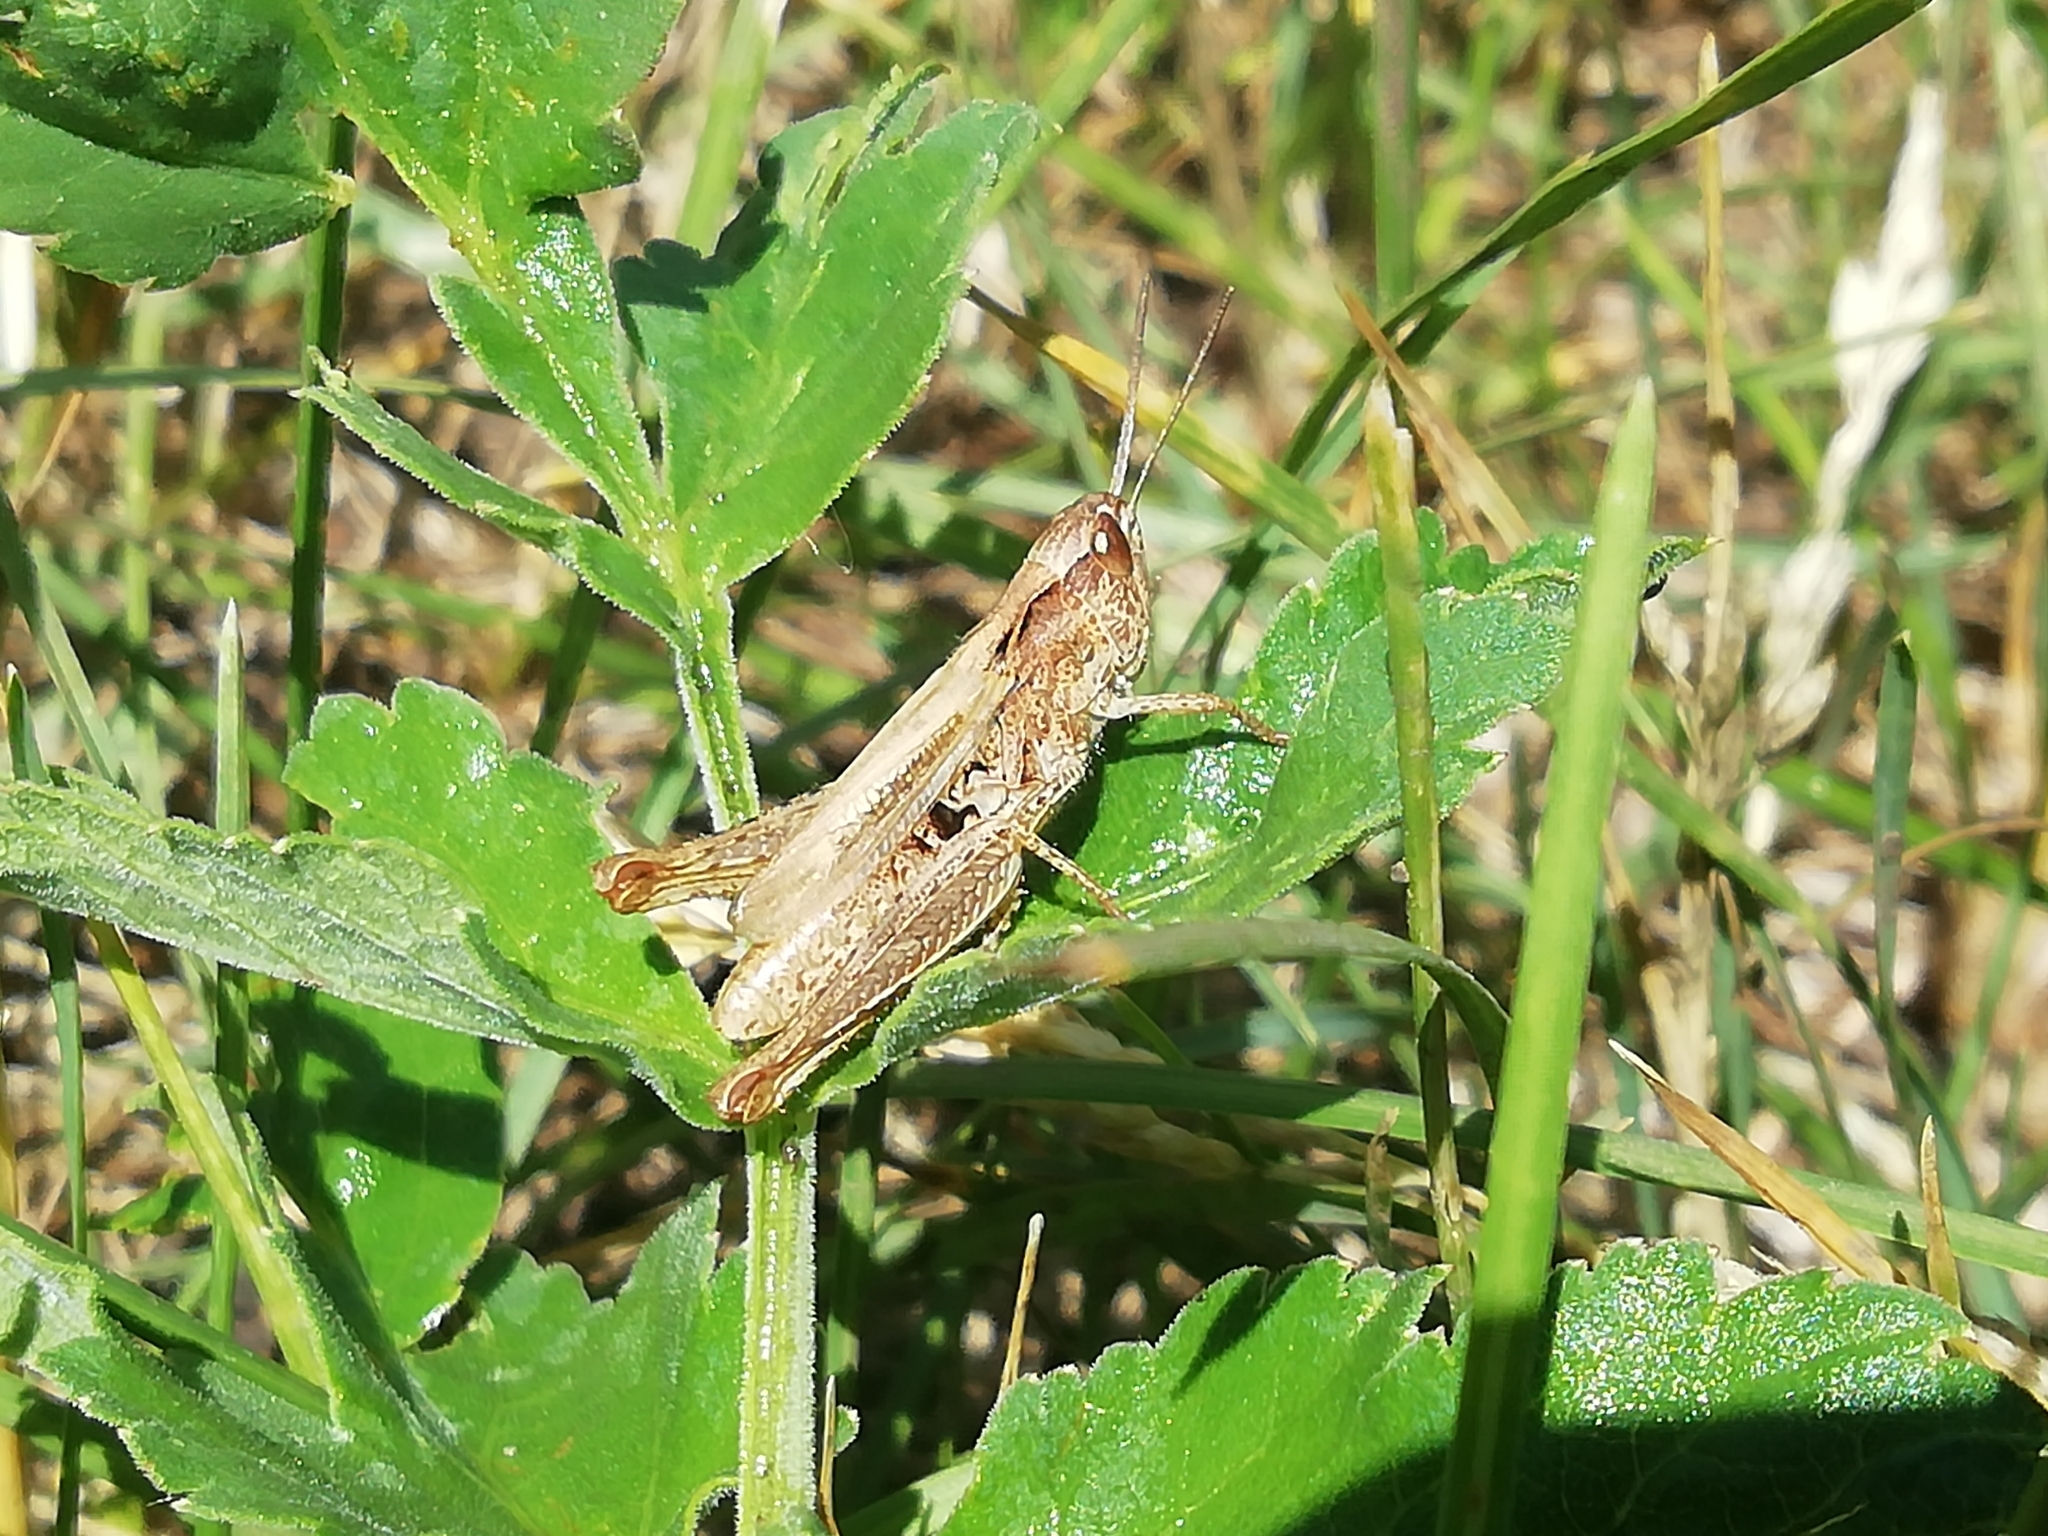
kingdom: Animalia
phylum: Arthropoda
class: Insecta
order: Orthoptera
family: Acrididae
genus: Chorthippus
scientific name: Chorthippus apricarius
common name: Upland field grasshopper
